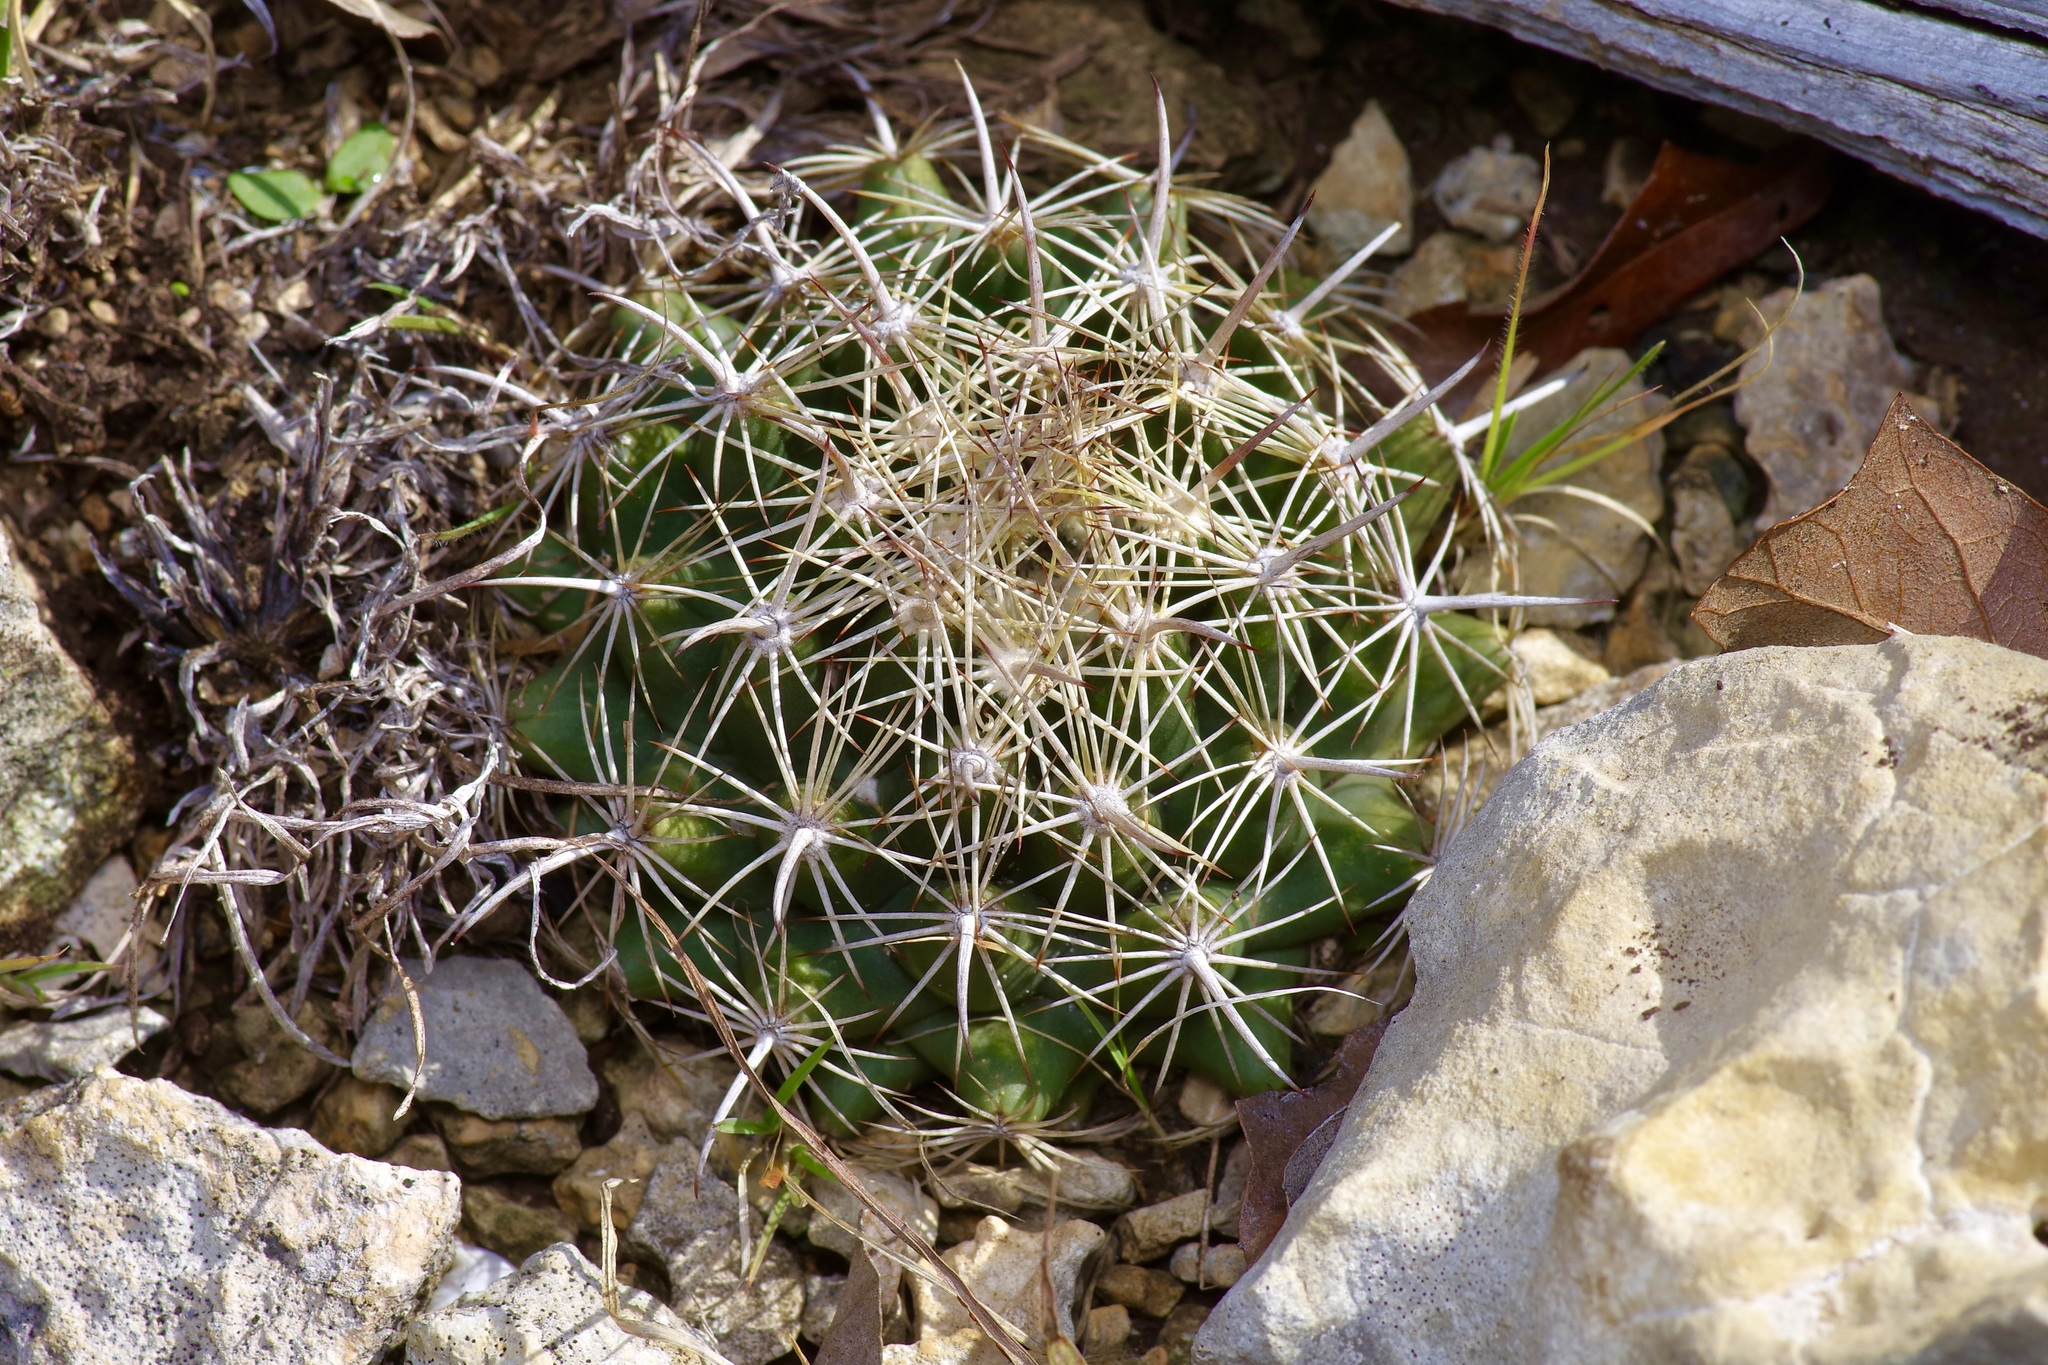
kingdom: Plantae
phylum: Tracheophyta
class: Magnoliopsida
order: Caryophyllales
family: Cactaceae
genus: Coryphantha
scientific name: Coryphantha sulcata
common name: Finger cactus
